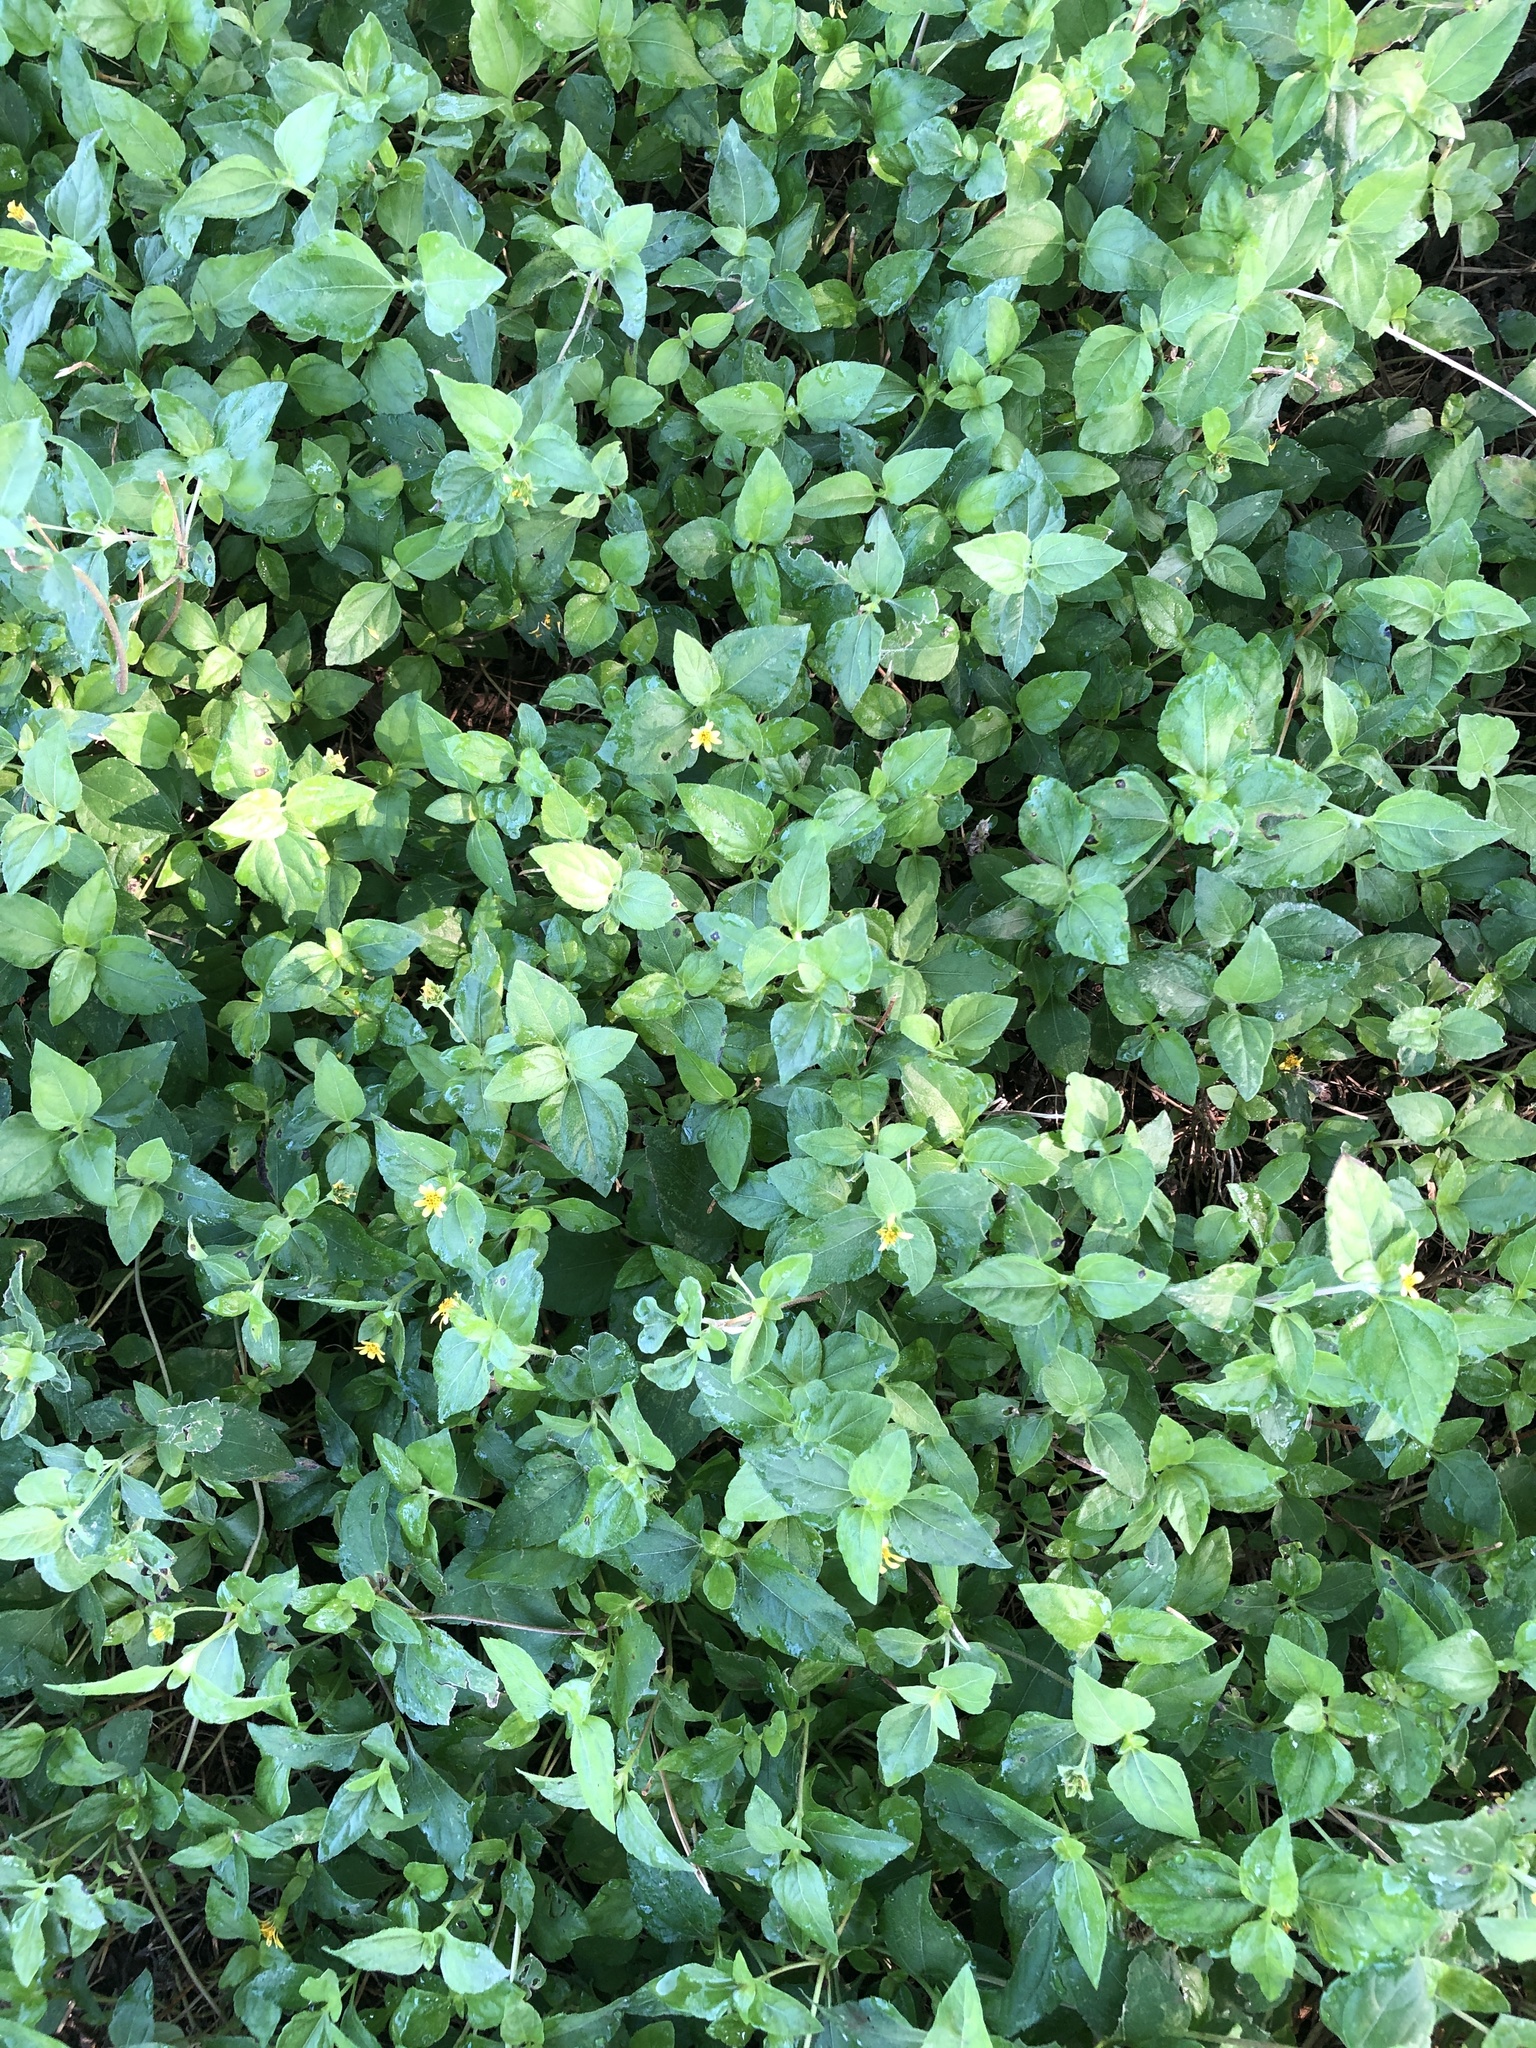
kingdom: Plantae
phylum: Tracheophyta
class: Magnoliopsida
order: Asterales
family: Asteraceae
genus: Calyptocarpus
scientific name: Calyptocarpus vialis
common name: Straggler daisy
